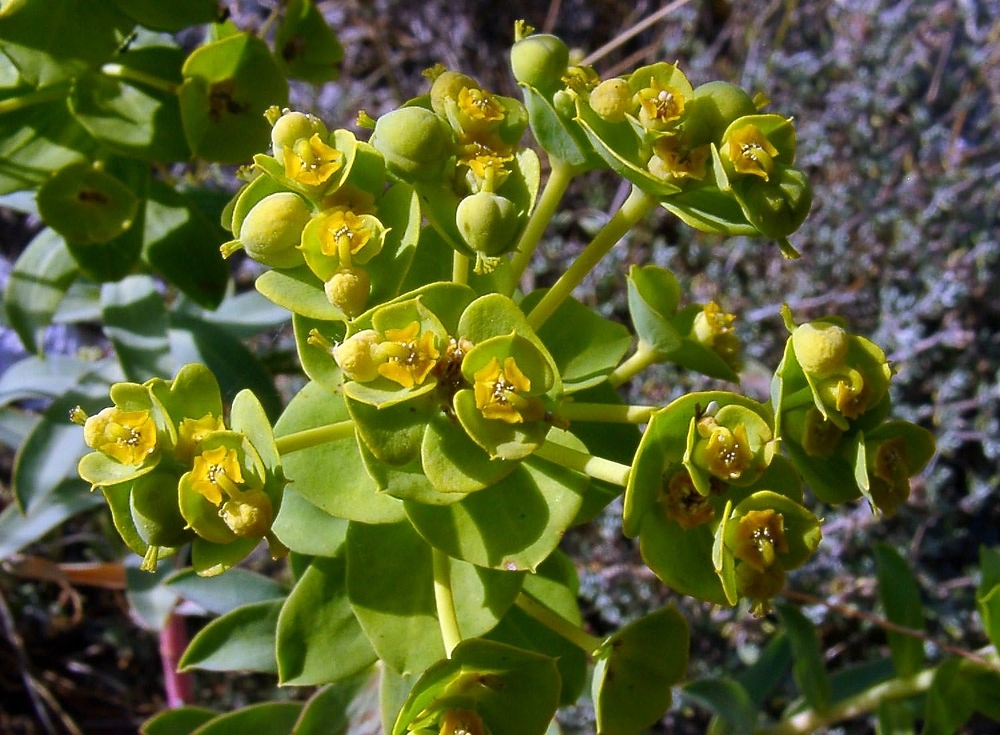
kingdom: Plantae
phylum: Tracheophyta
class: Magnoliopsida
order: Malpighiales
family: Euphorbiaceae
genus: Euphorbia
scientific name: Euphorbia nicaeensis
